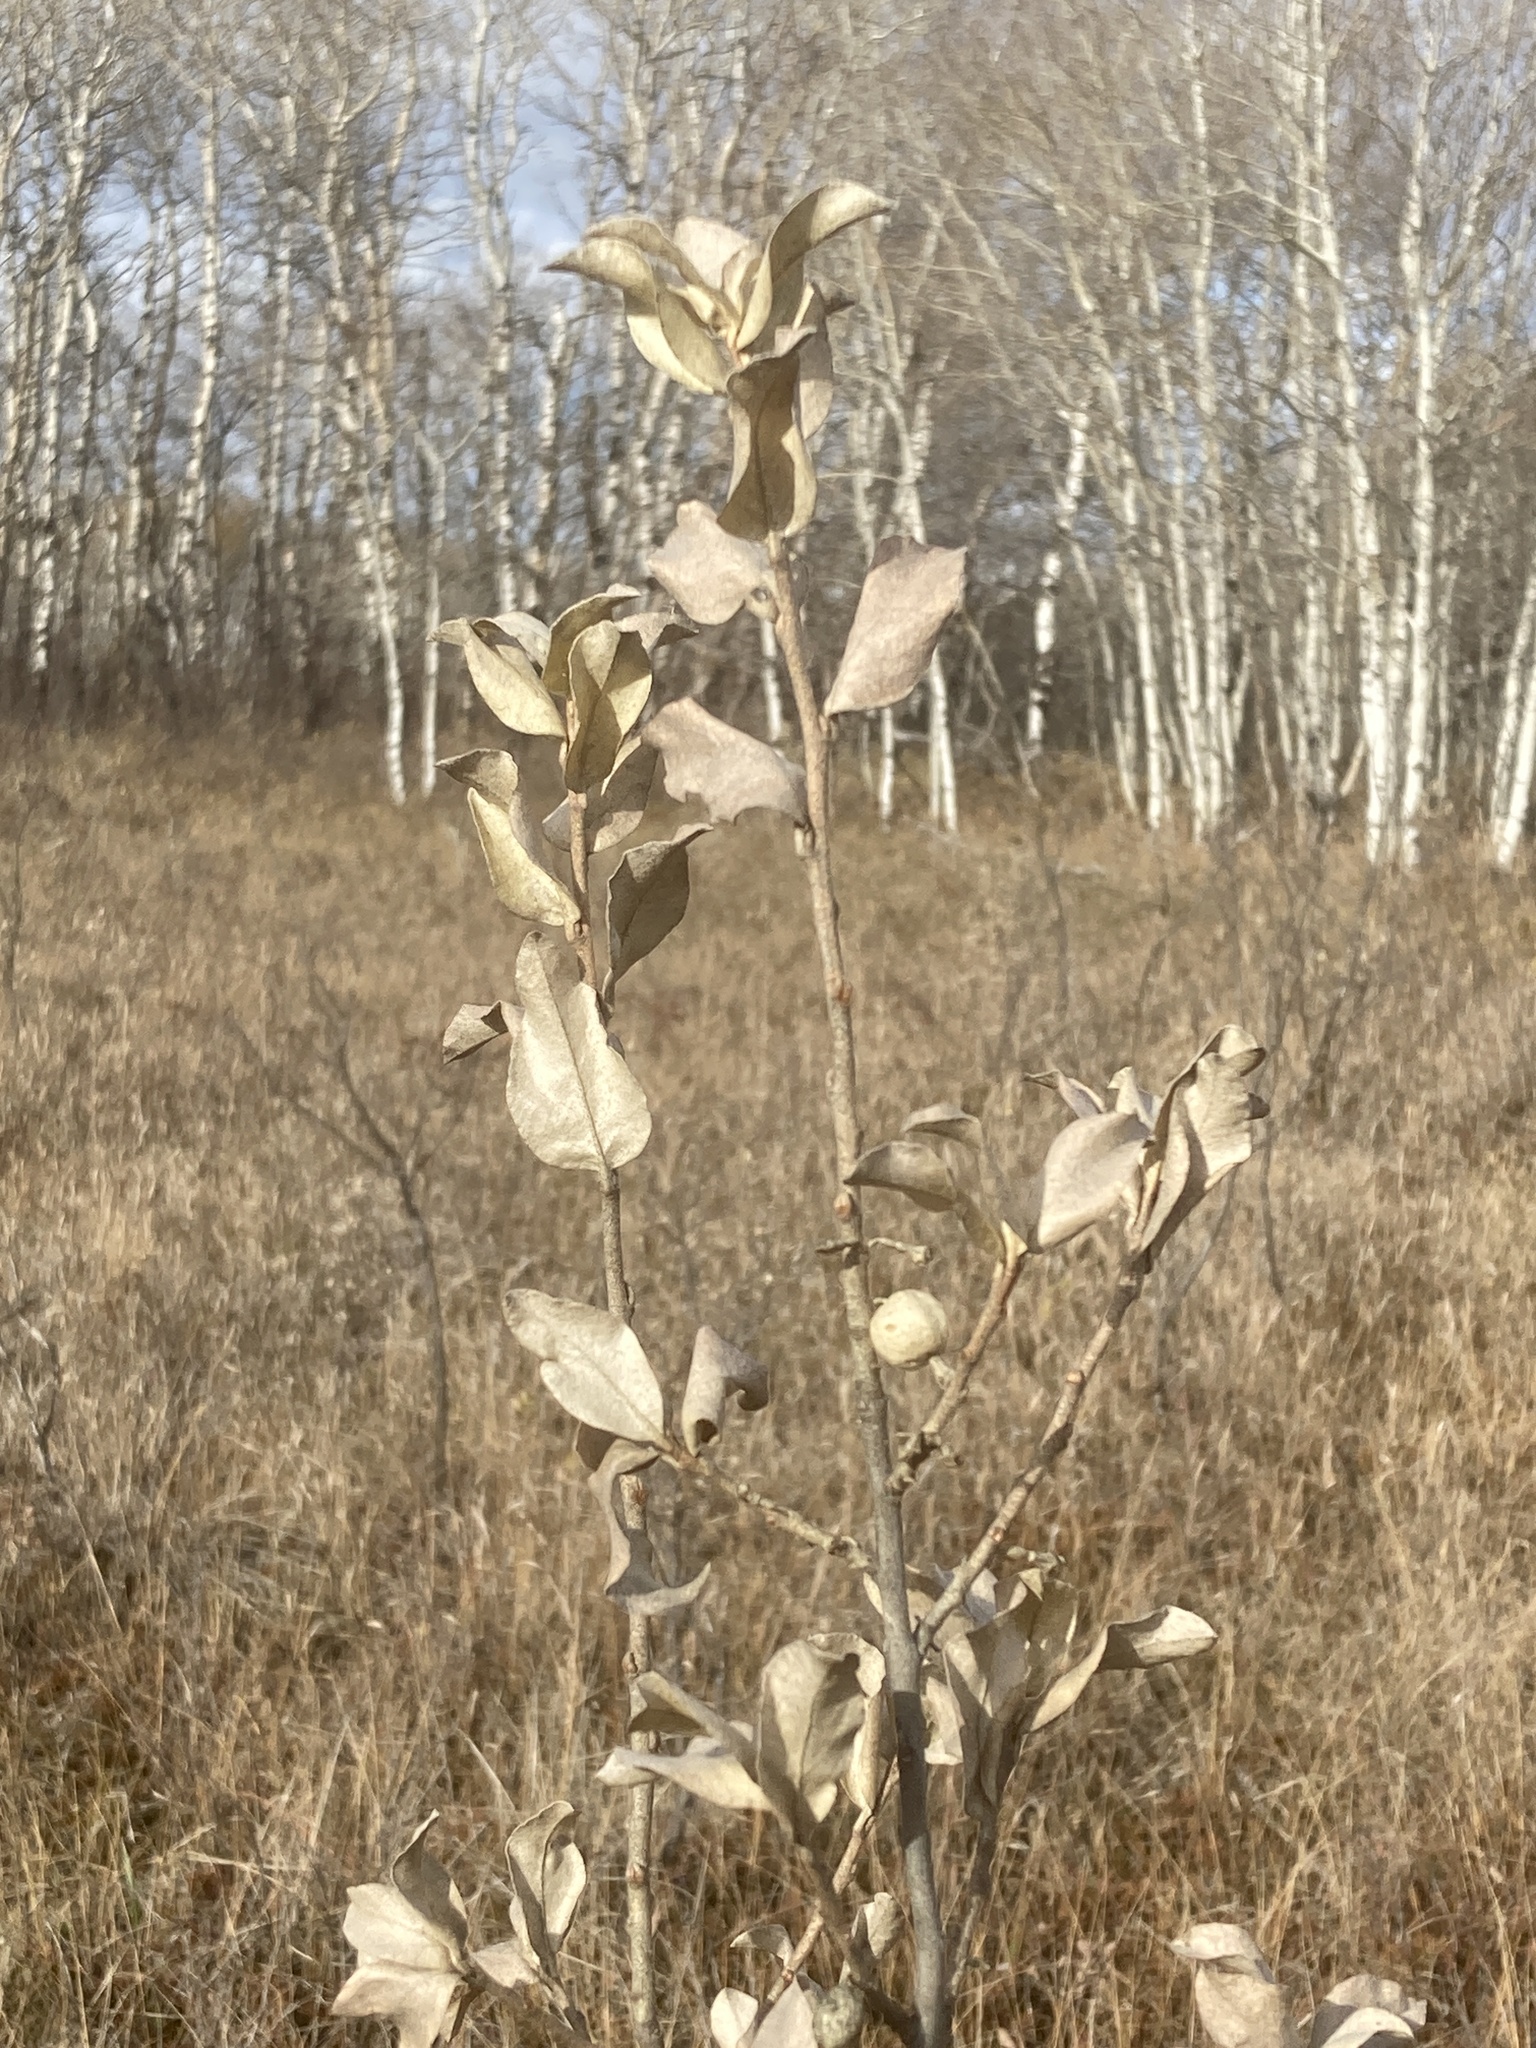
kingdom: Plantae
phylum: Tracheophyta
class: Magnoliopsida
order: Rosales
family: Elaeagnaceae
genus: Elaeagnus
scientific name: Elaeagnus commutata
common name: Silverberry
